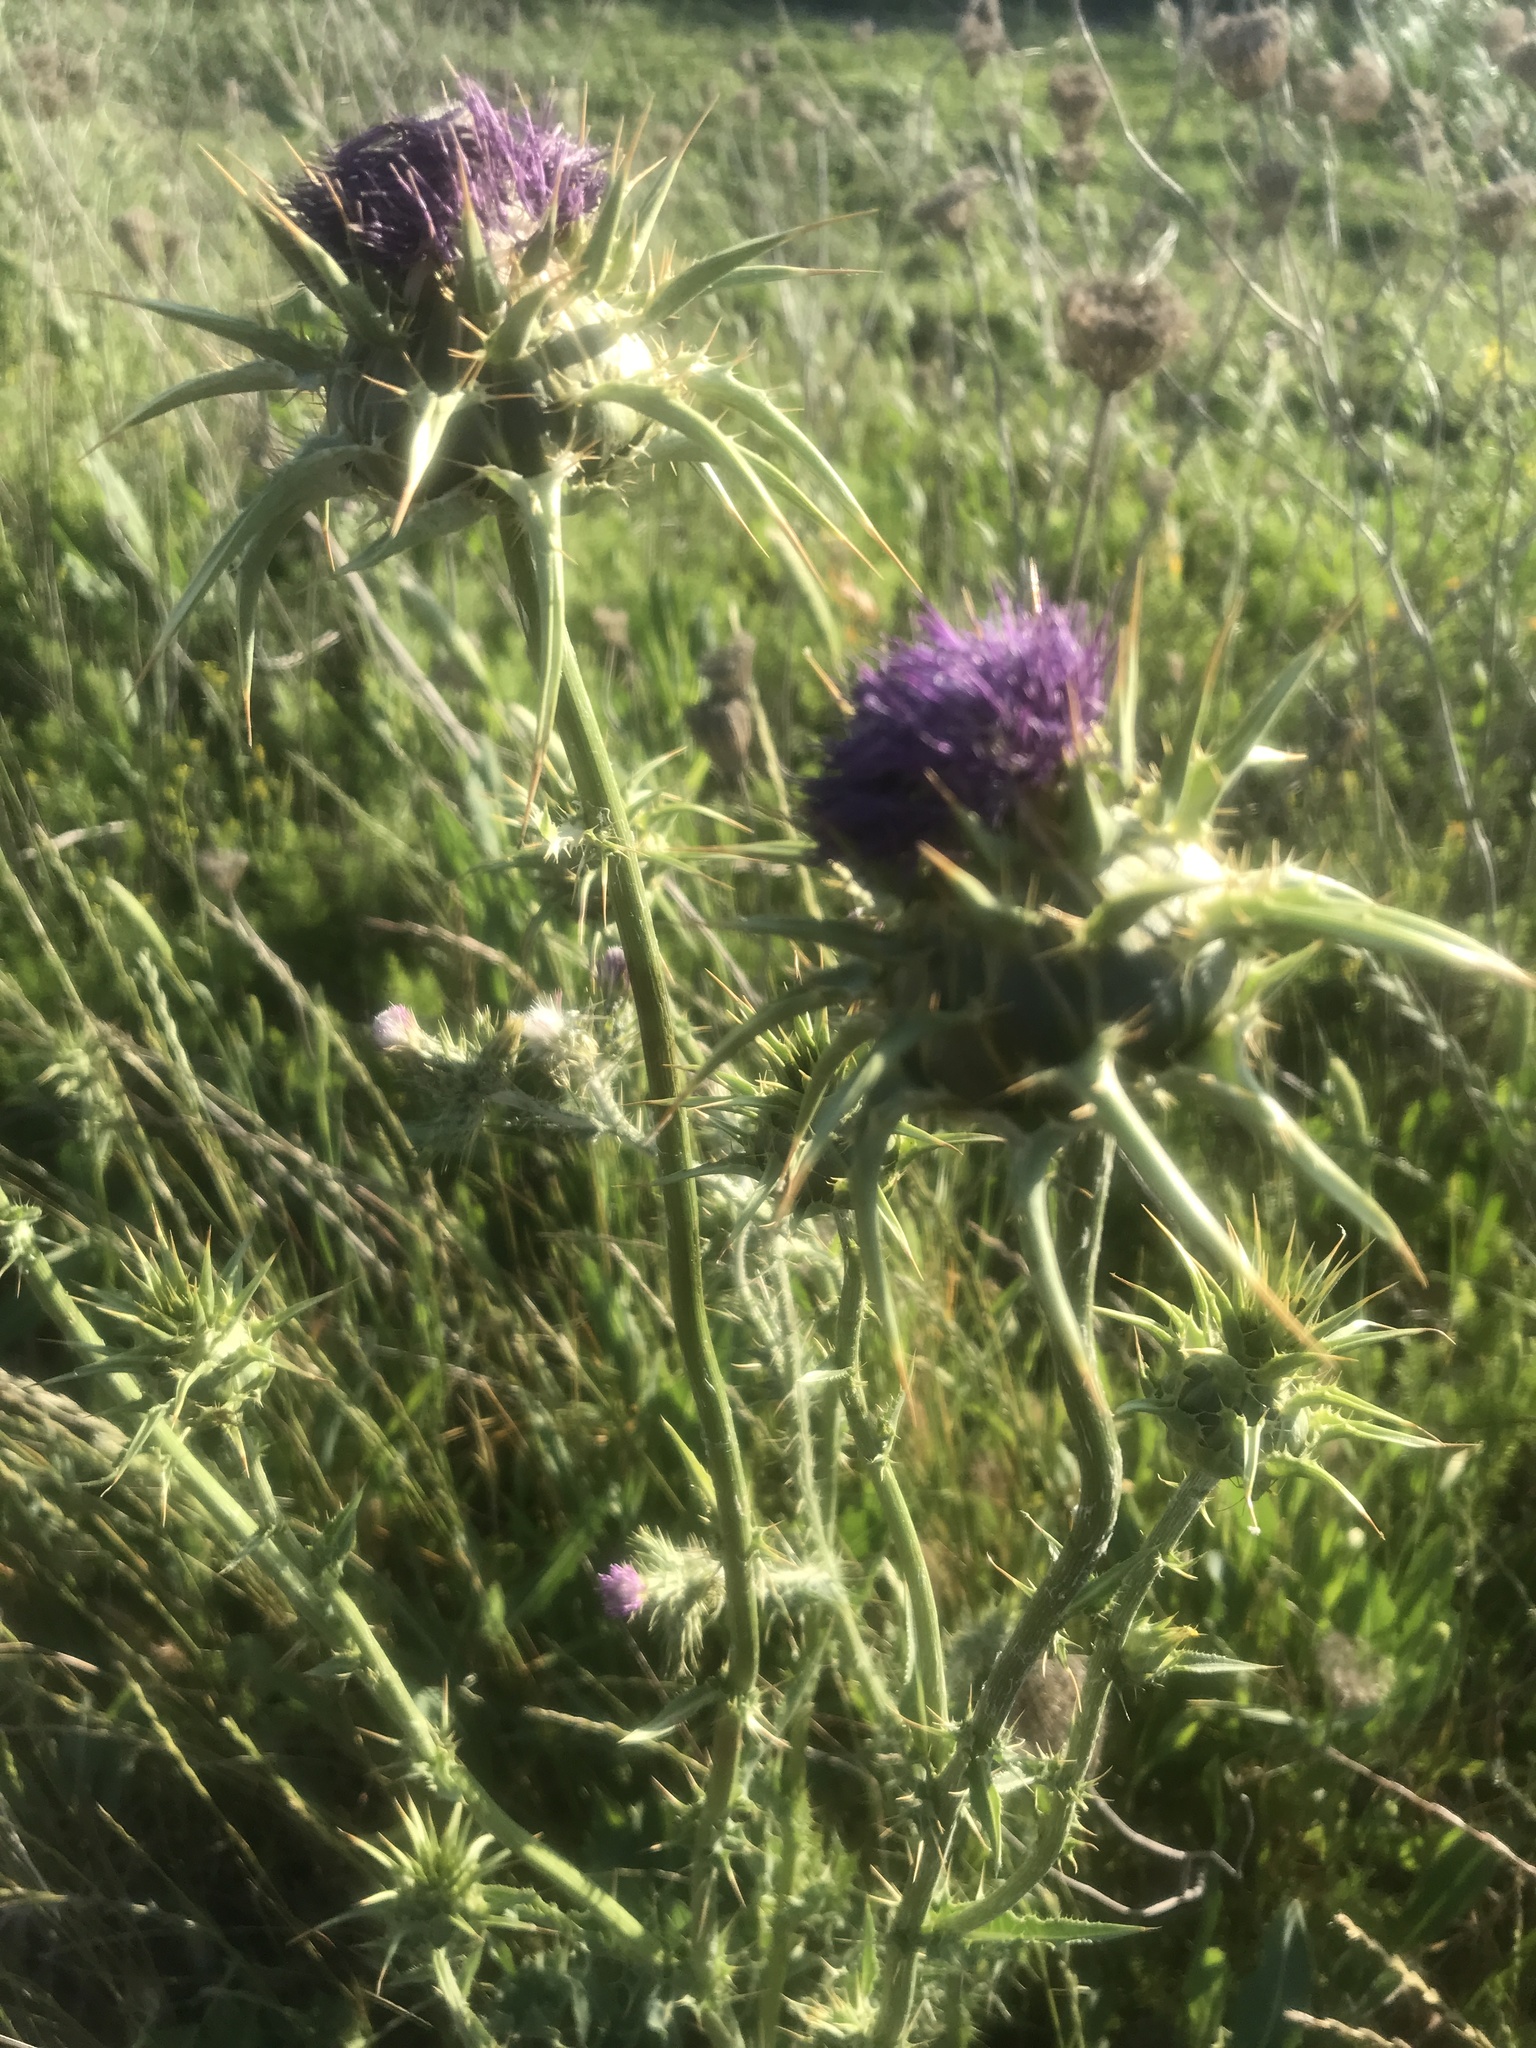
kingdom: Plantae
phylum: Tracheophyta
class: Magnoliopsida
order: Asterales
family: Asteraceae
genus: Silybum
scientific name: Silybum marianum
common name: Milk thistle
